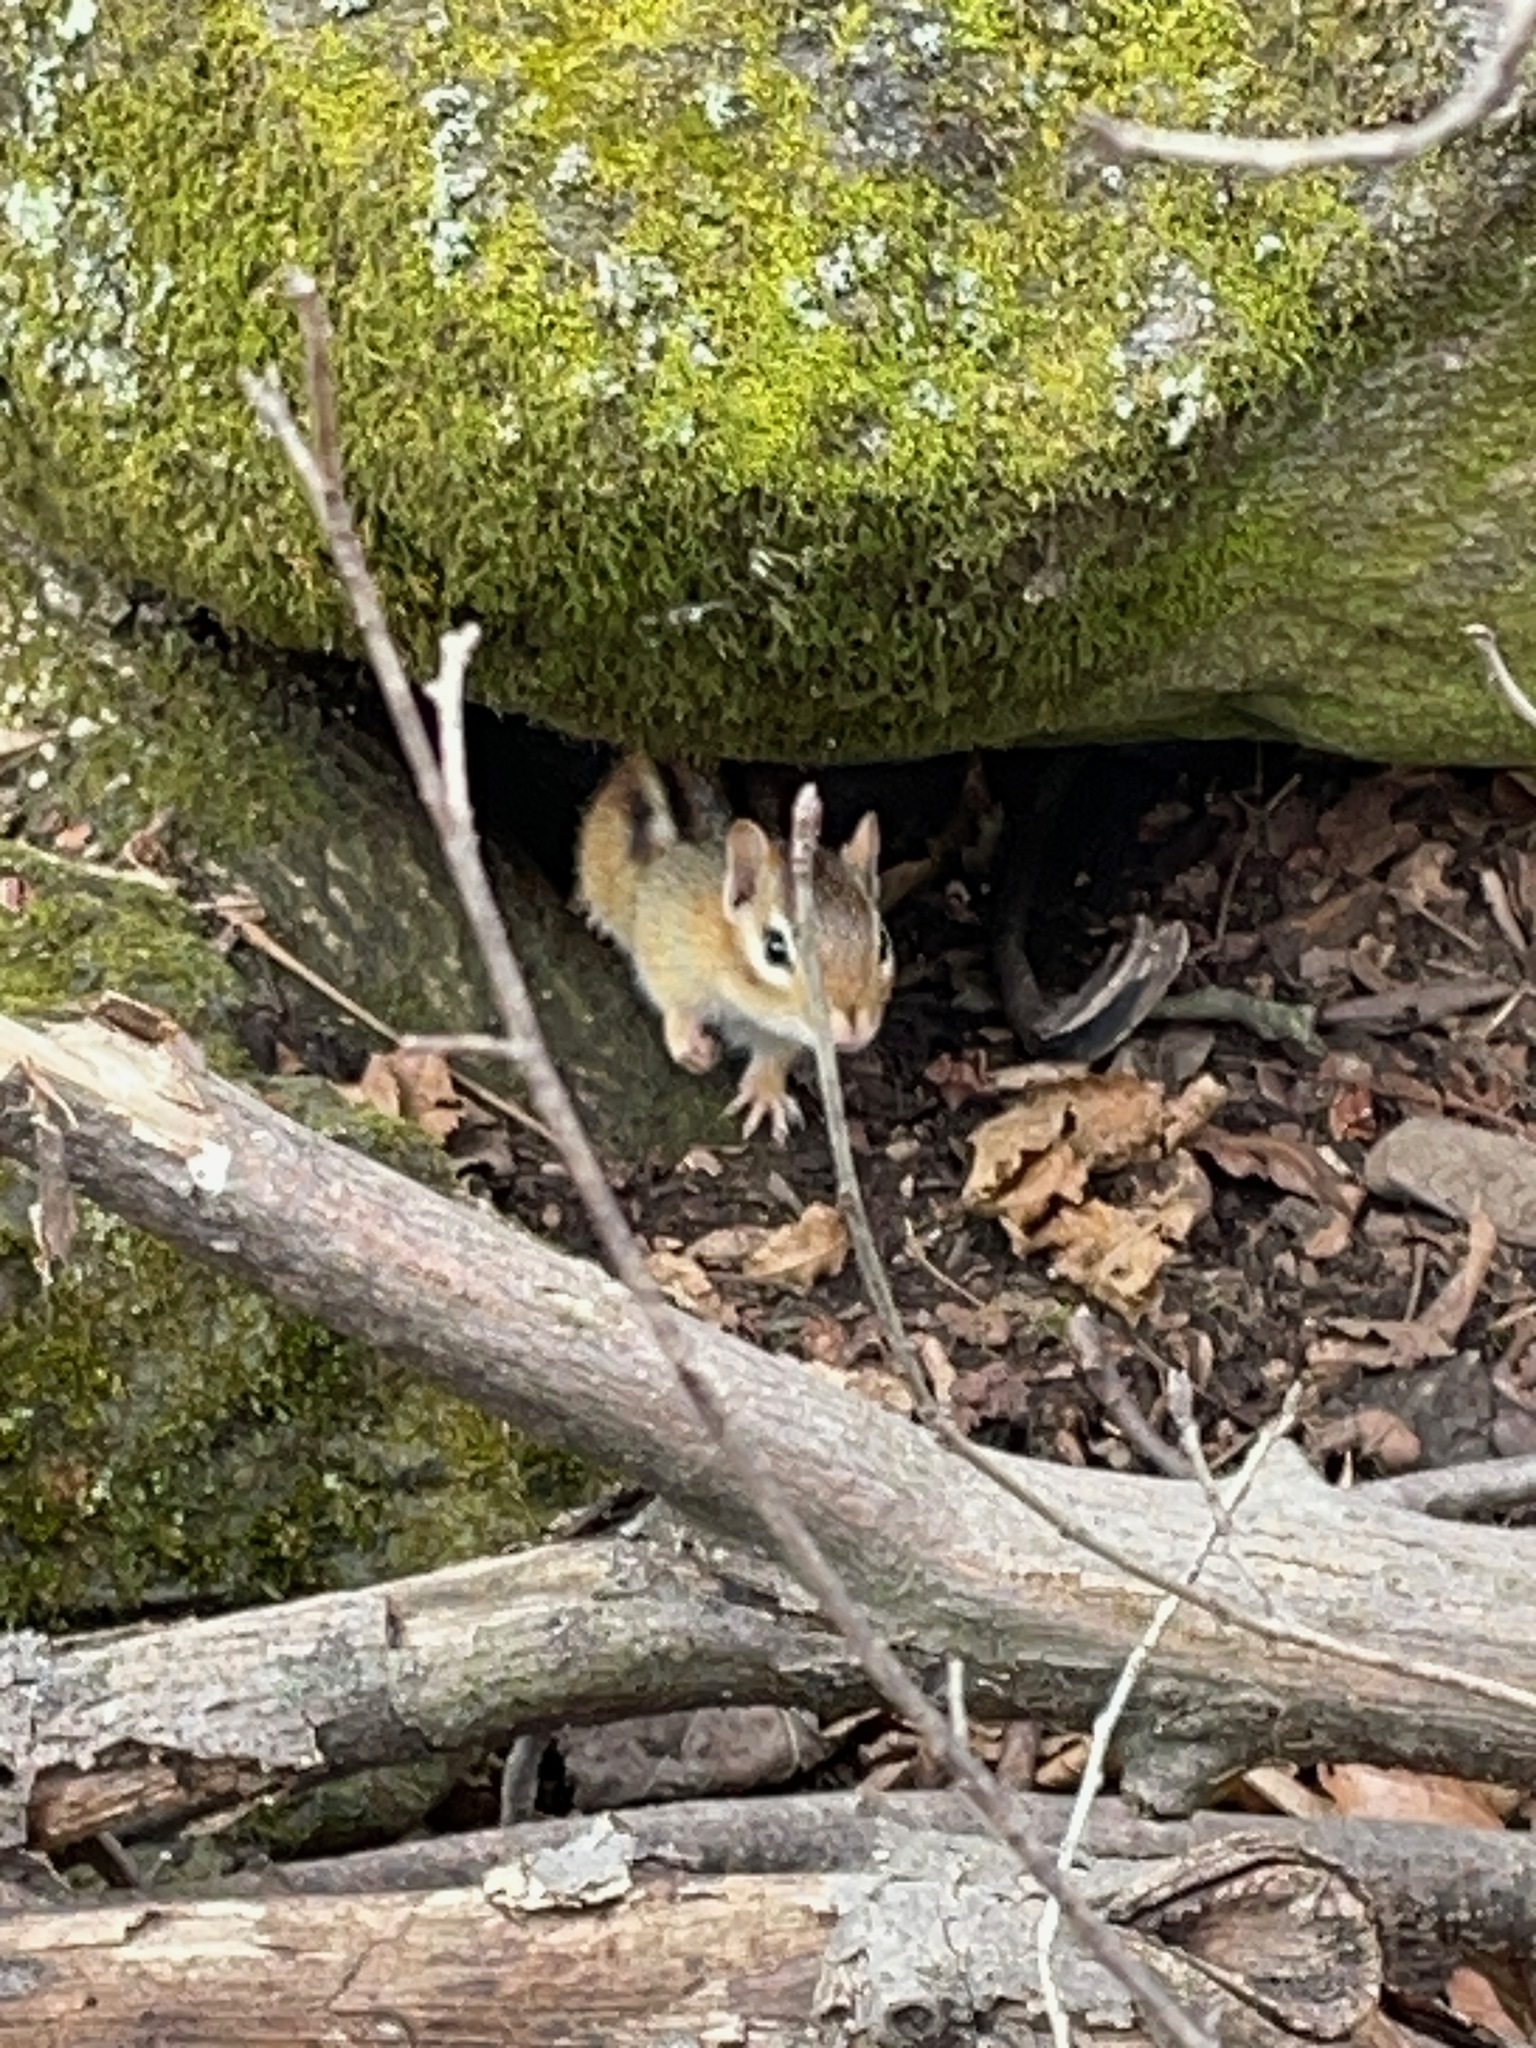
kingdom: Animalia
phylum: Chordata
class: Mammalia
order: Rodentia
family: Sciuridae
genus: Tamias
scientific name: Tamias striatus
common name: Eastern chipmunk
